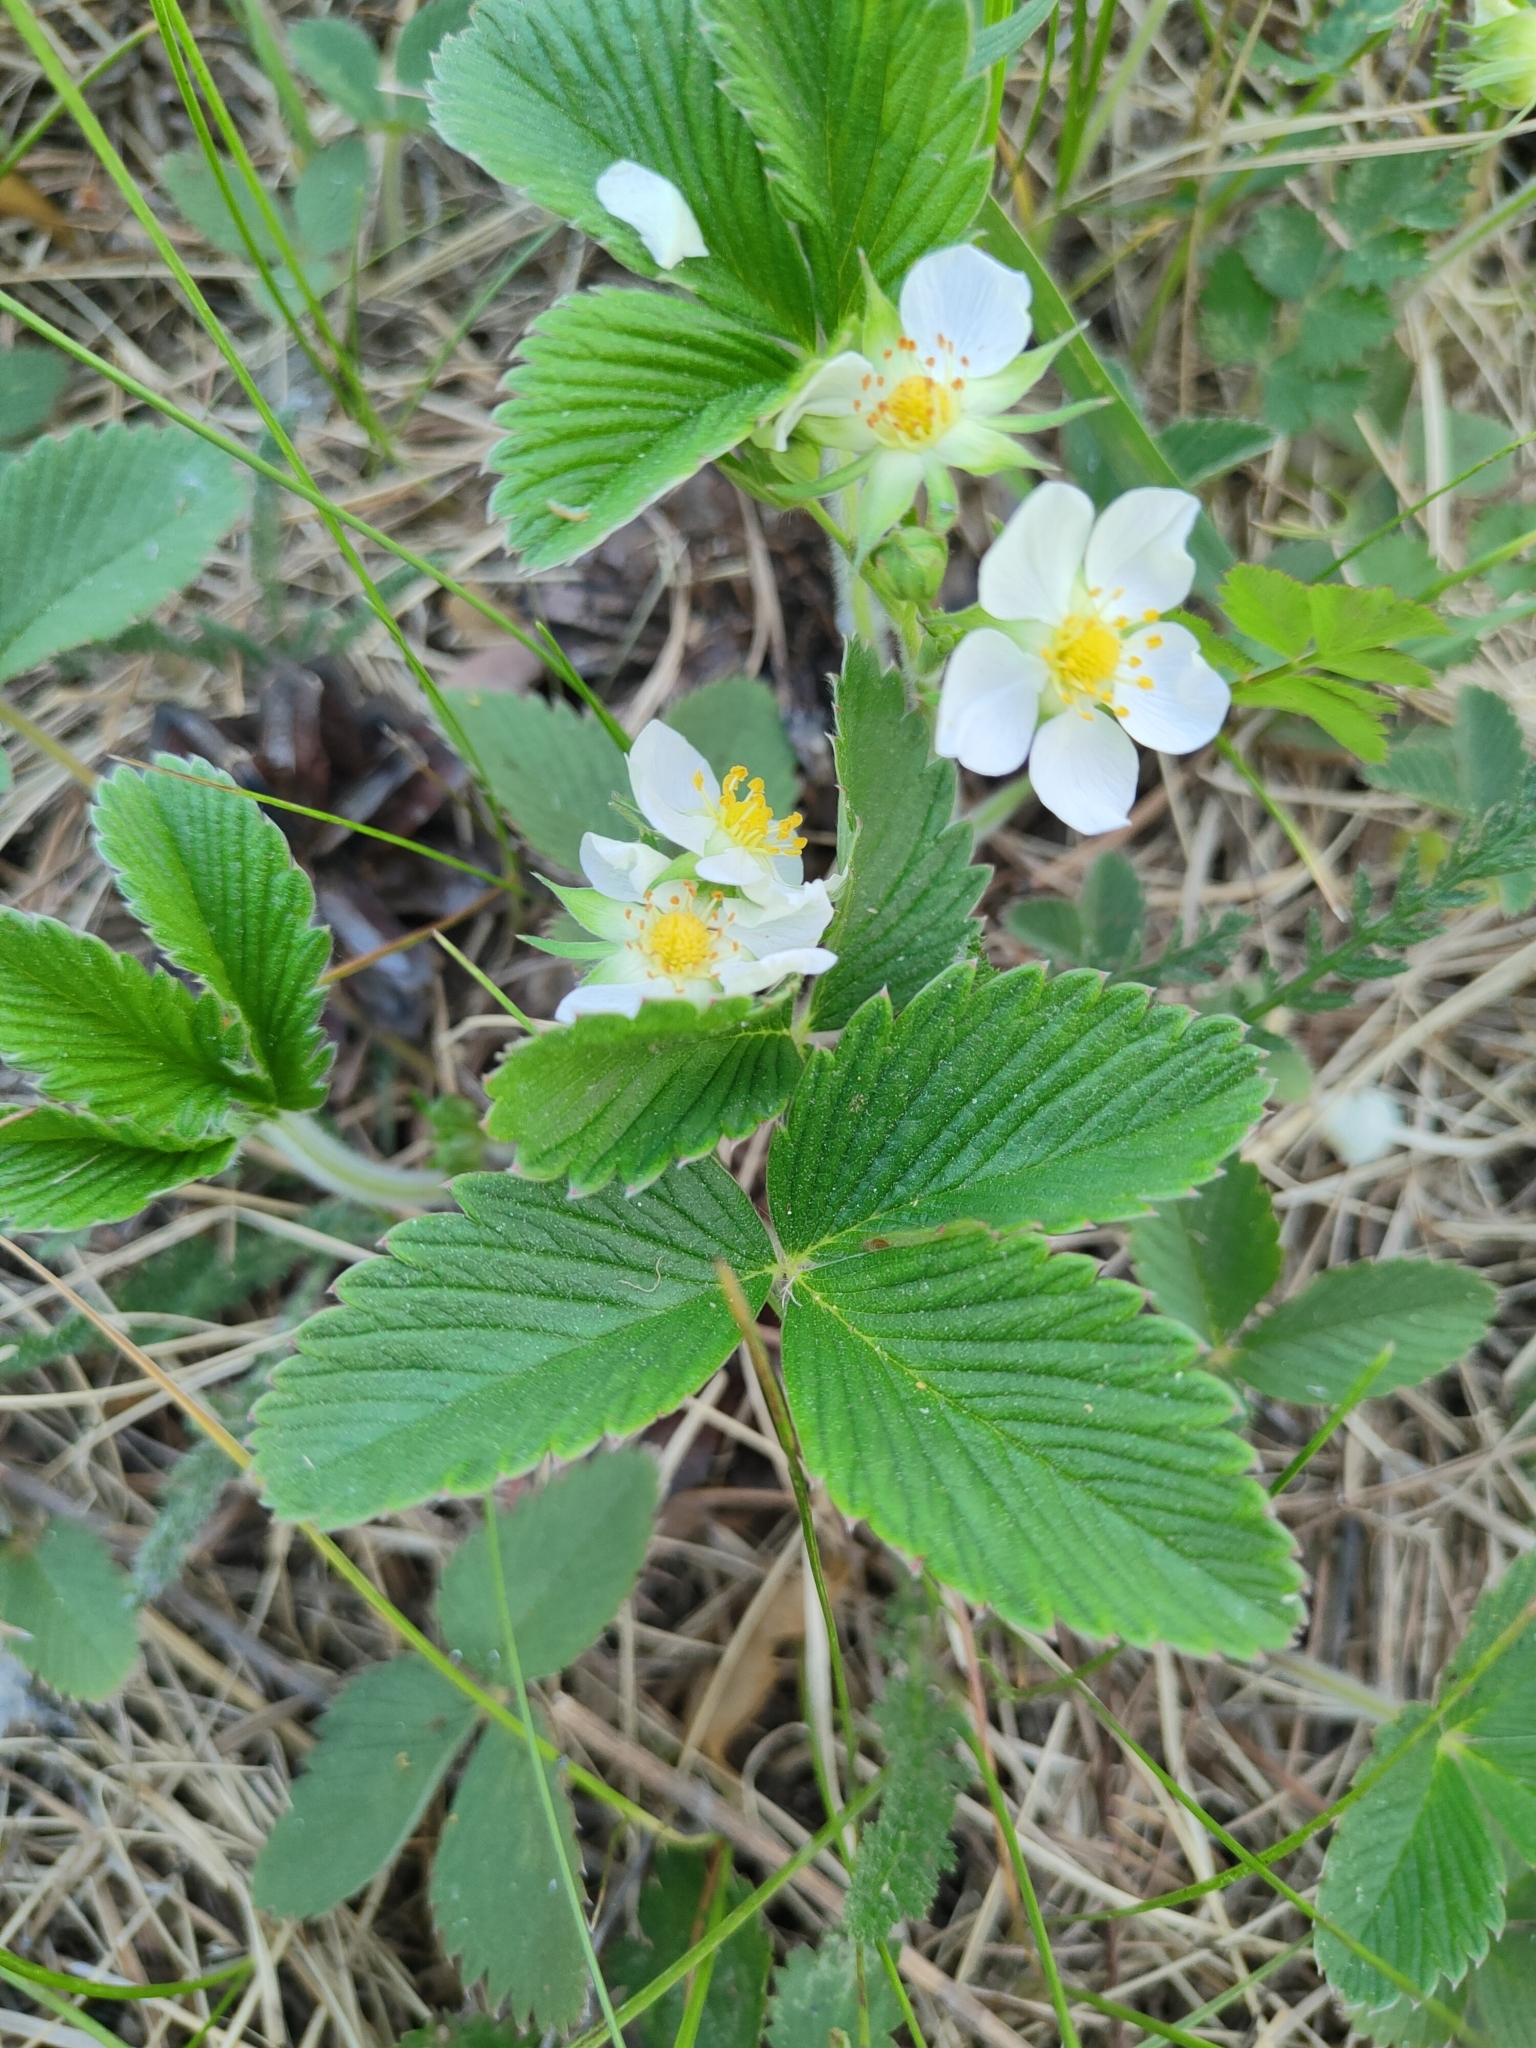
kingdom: Plantae
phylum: Tracheophyta
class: Magnoliopsida
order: Rosales
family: Rosaceae
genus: Fragaria
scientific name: Fragaria viridis
